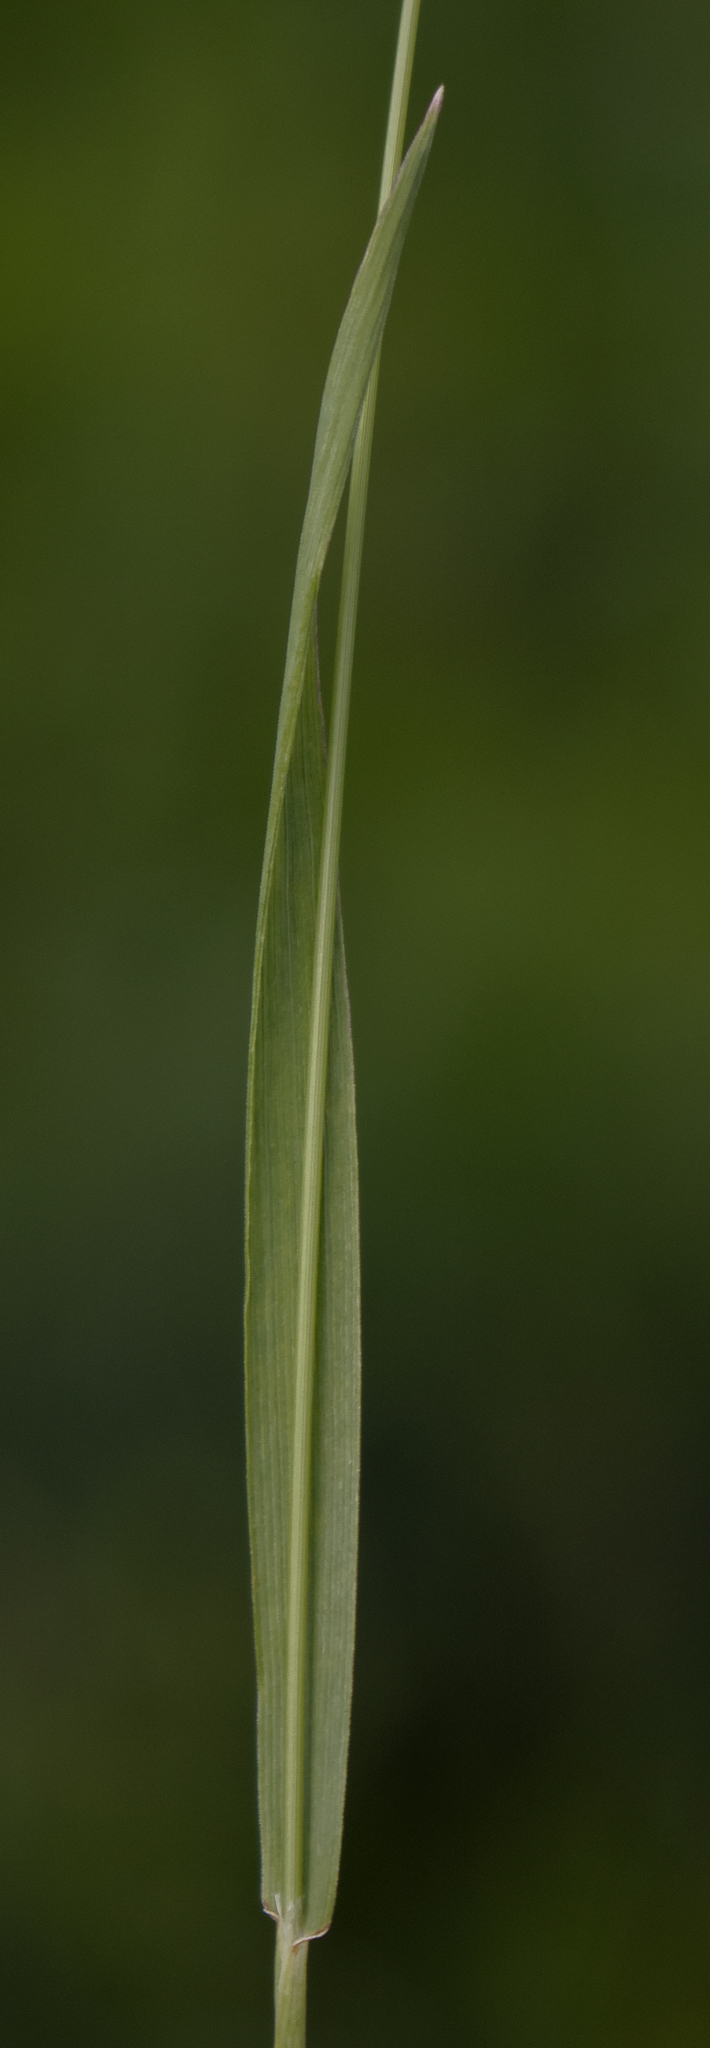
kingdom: Plantae
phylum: Tracheophyta
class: Liliopsida
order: Poales
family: Poaceae
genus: Sphenopholis
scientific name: Sphenopholis obtusata
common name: Prairie grass
